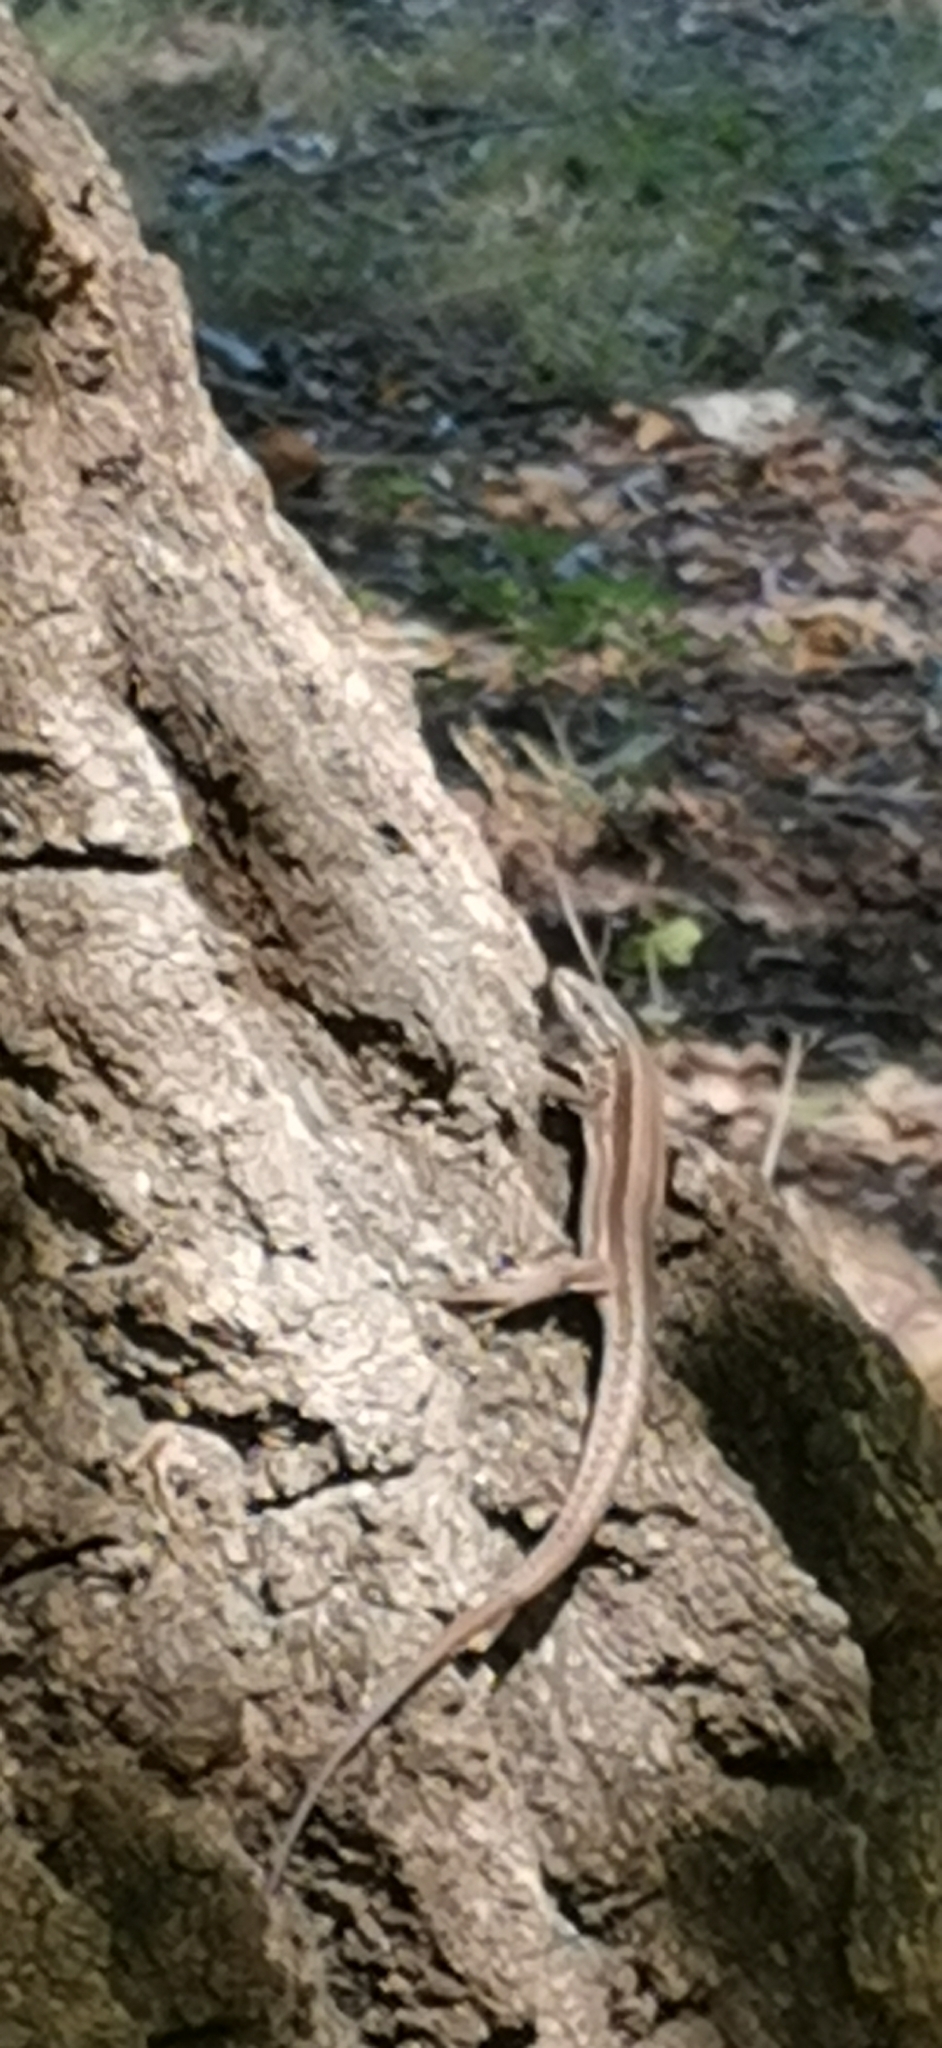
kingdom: Animalia
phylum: Chordata
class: Squamata
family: Lacertidae
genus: Podarcis
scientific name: Podarcis muralis
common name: Common wall lizard
